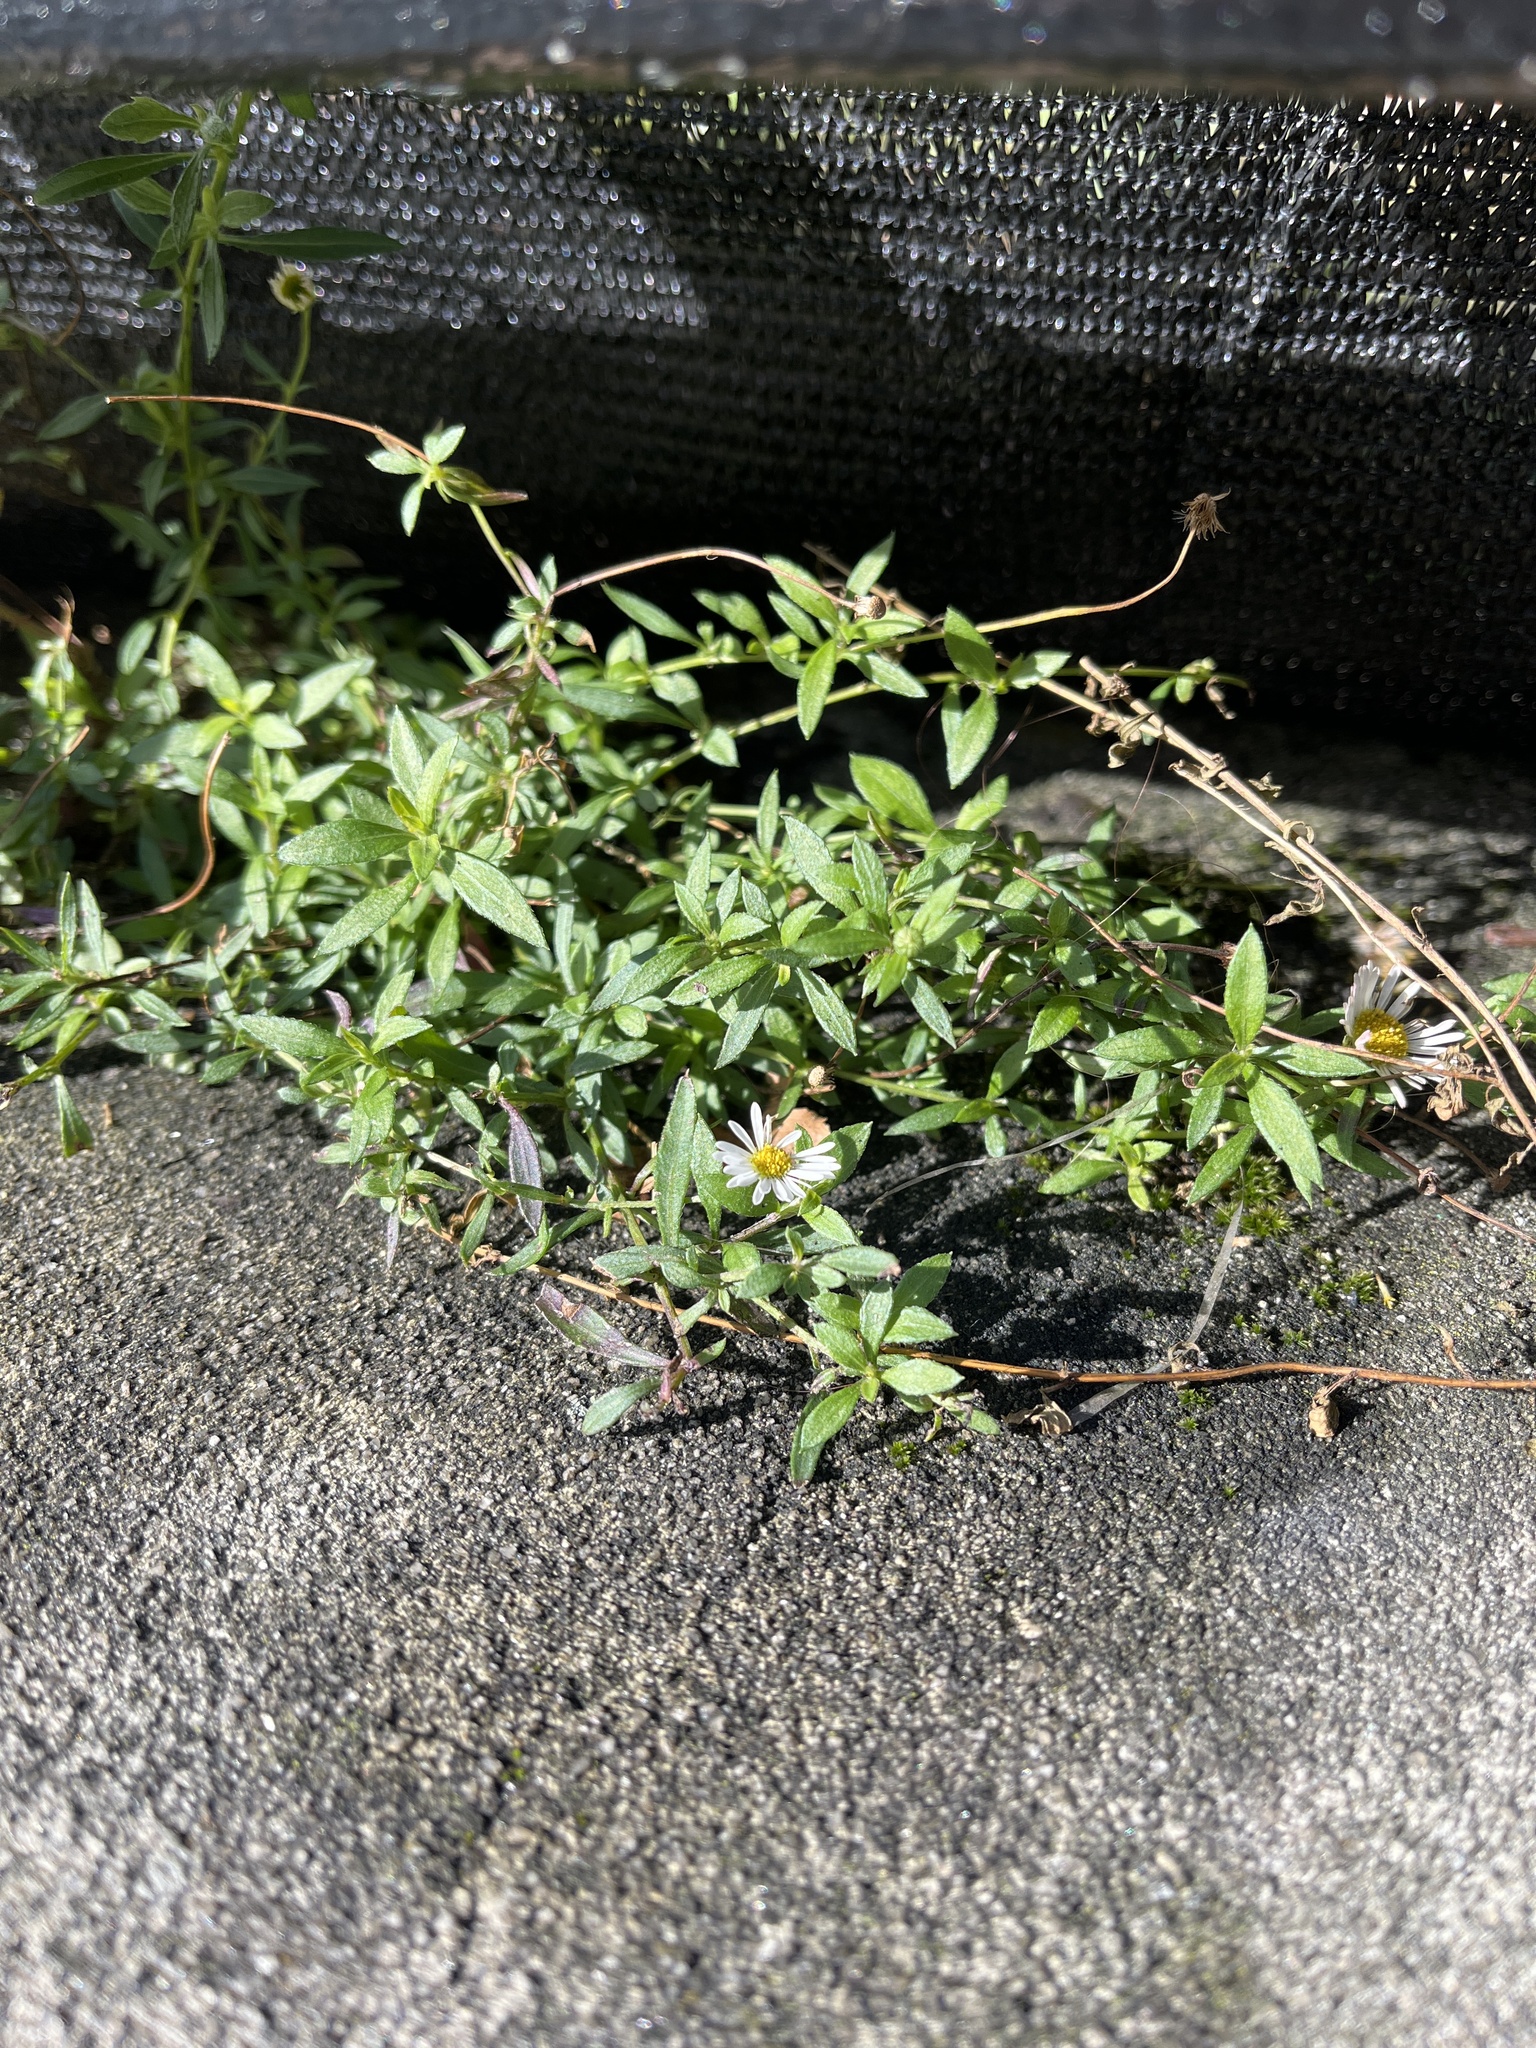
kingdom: Plantae
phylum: Tracheophyta
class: Magnoliopsida
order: Asterales
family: Asteraceae
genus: Erigeron
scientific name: Erigeron karvinskianus
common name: Mexican fleabane
